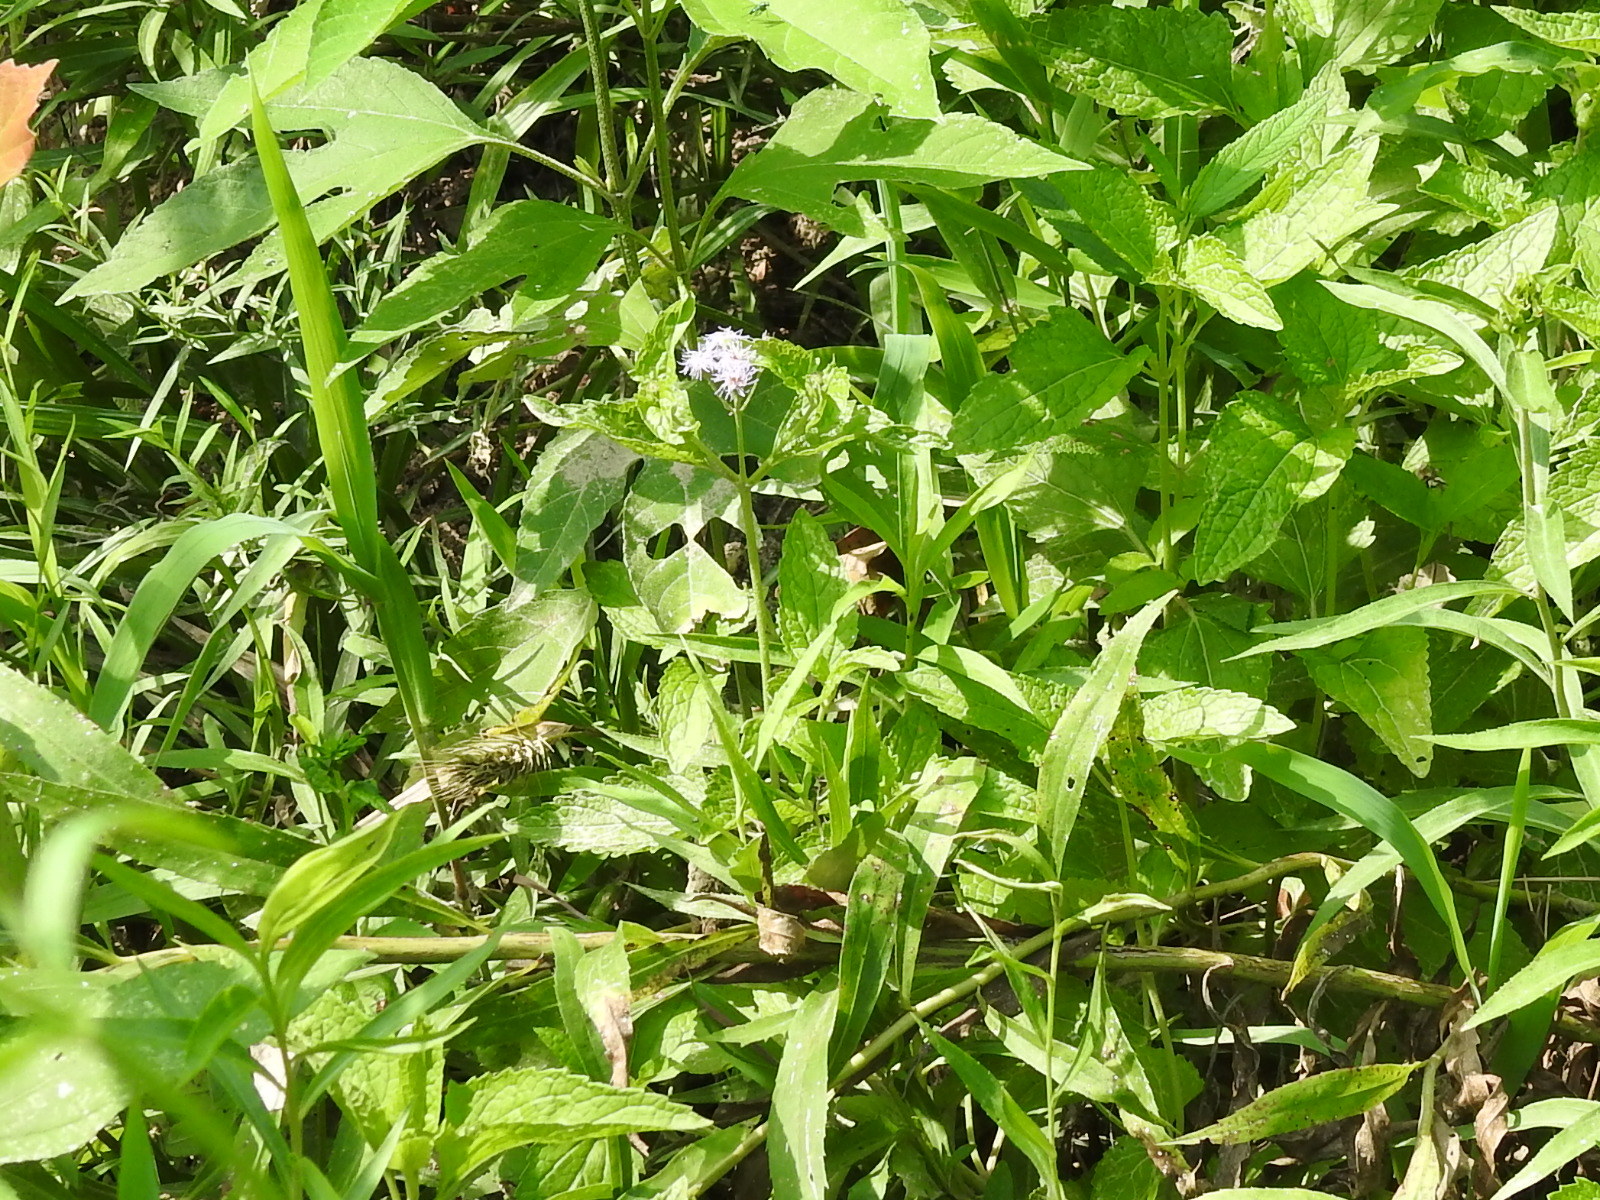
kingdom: Plantae
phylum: Tracheophyta
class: Magnoliopsida
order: Asterales
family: Asteraceae
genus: Conoclinium
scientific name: Conoclinium coelestinum
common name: Blue mistflower
